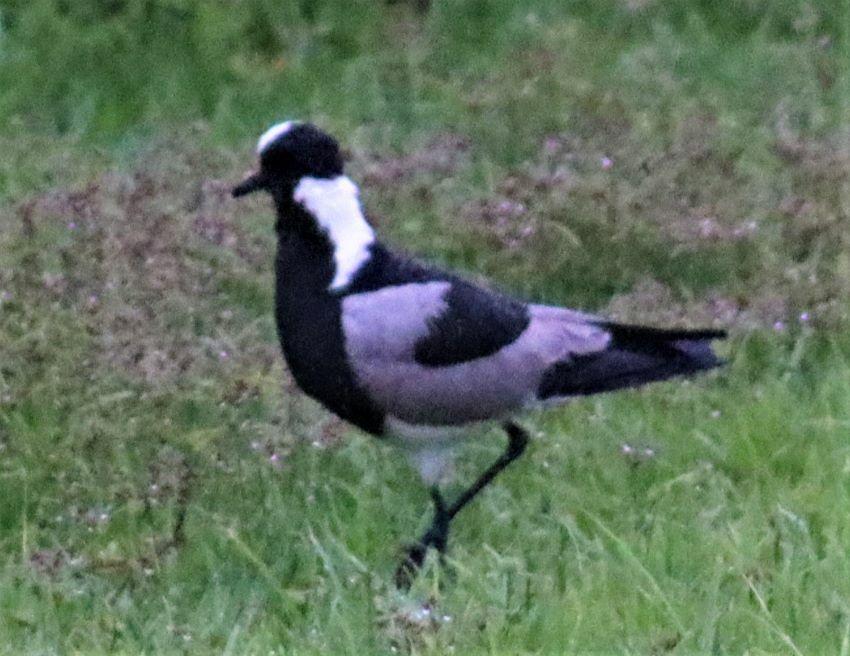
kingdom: Animalia
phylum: Chordata
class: Aves
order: Charadriiformes
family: Charadriidae
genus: Vanellus
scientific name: Vanellus armatus
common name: Blacksmith lapwing
